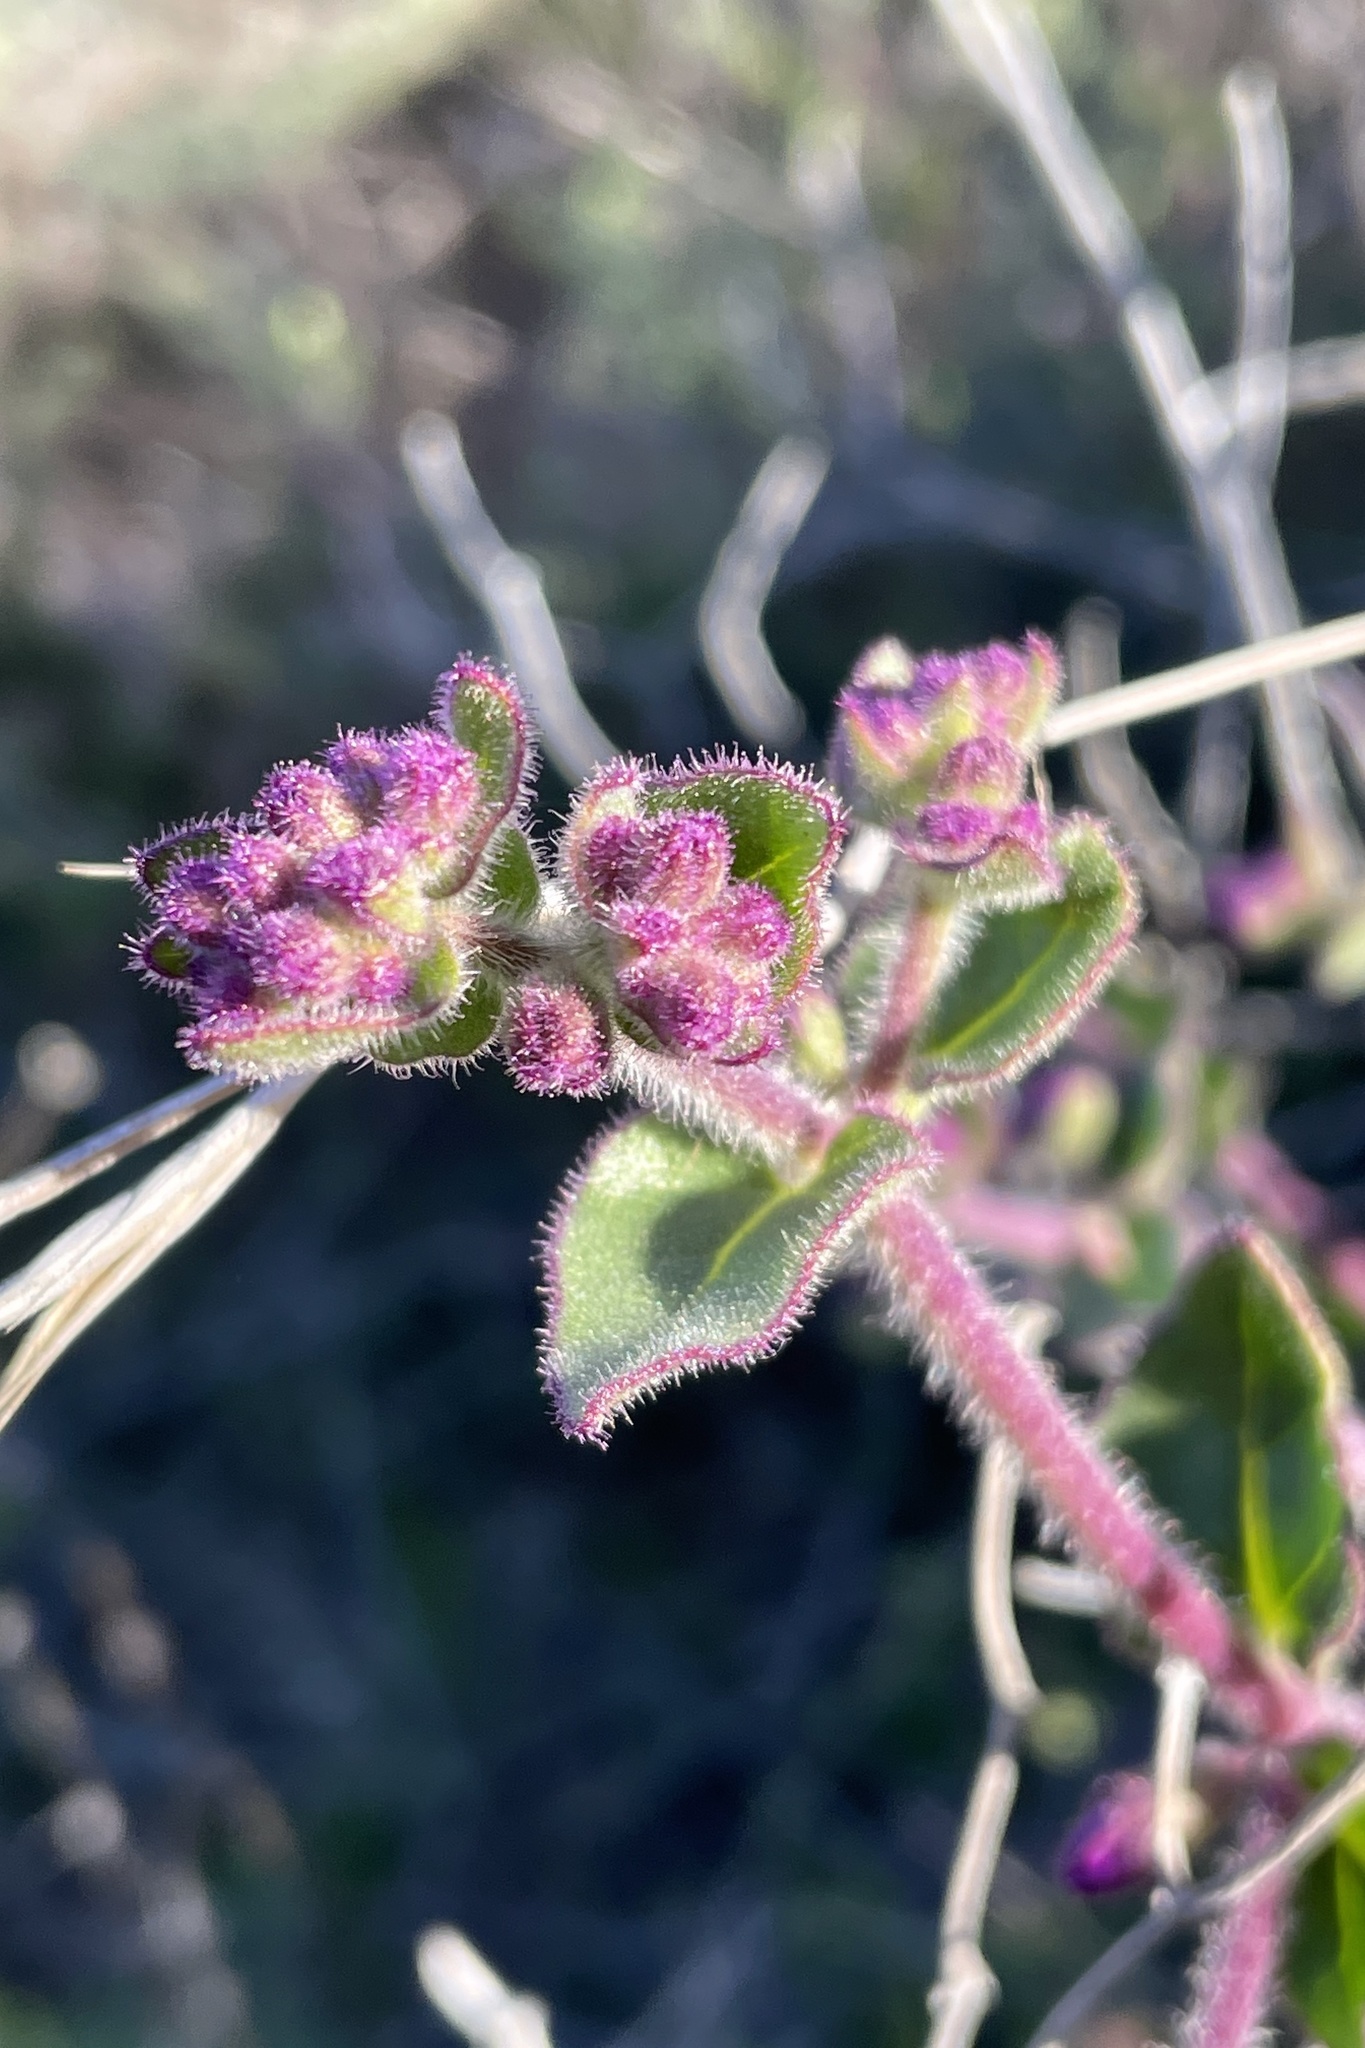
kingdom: Plantae
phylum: Tracheophyta
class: Magnoliopsida
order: Caryophyllales
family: Nyctaginaceae
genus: Mirabilis
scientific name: Mirabilis laevis
